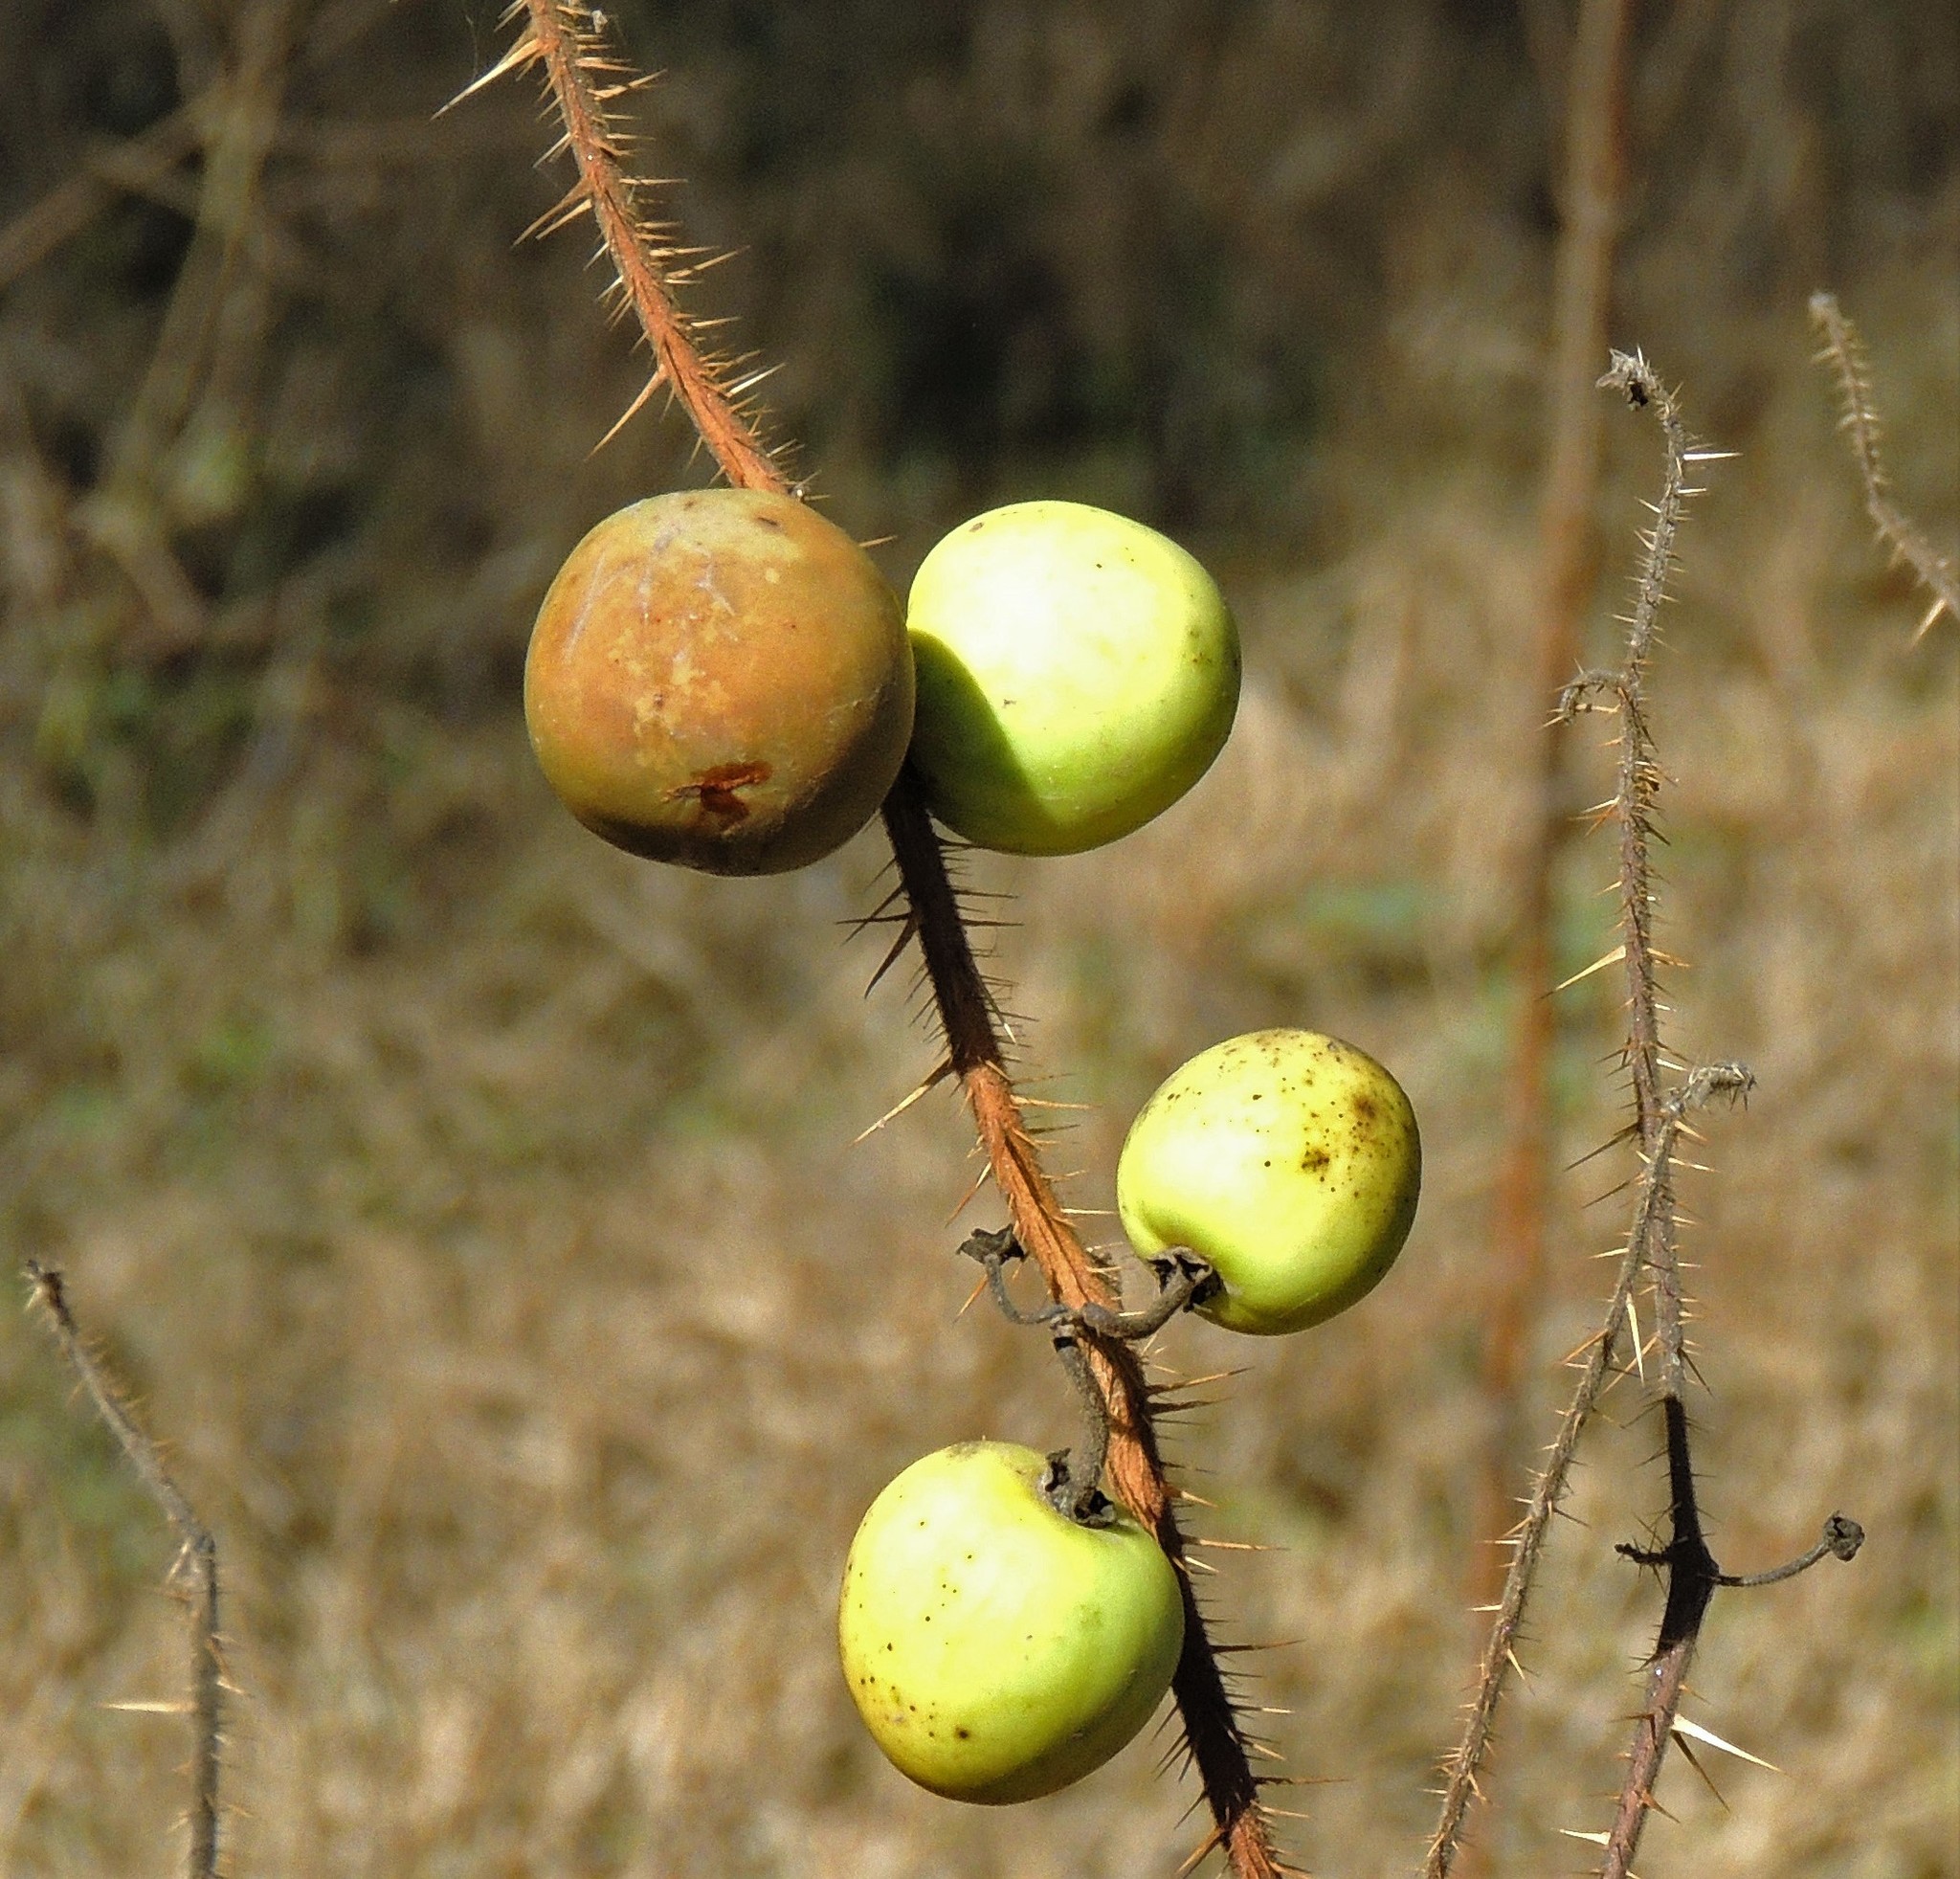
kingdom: Plantae
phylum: Tracheophyta
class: Magnoliopsida
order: Solanales
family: Solanaceae
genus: Solanum
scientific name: Solanum palinacanthum
